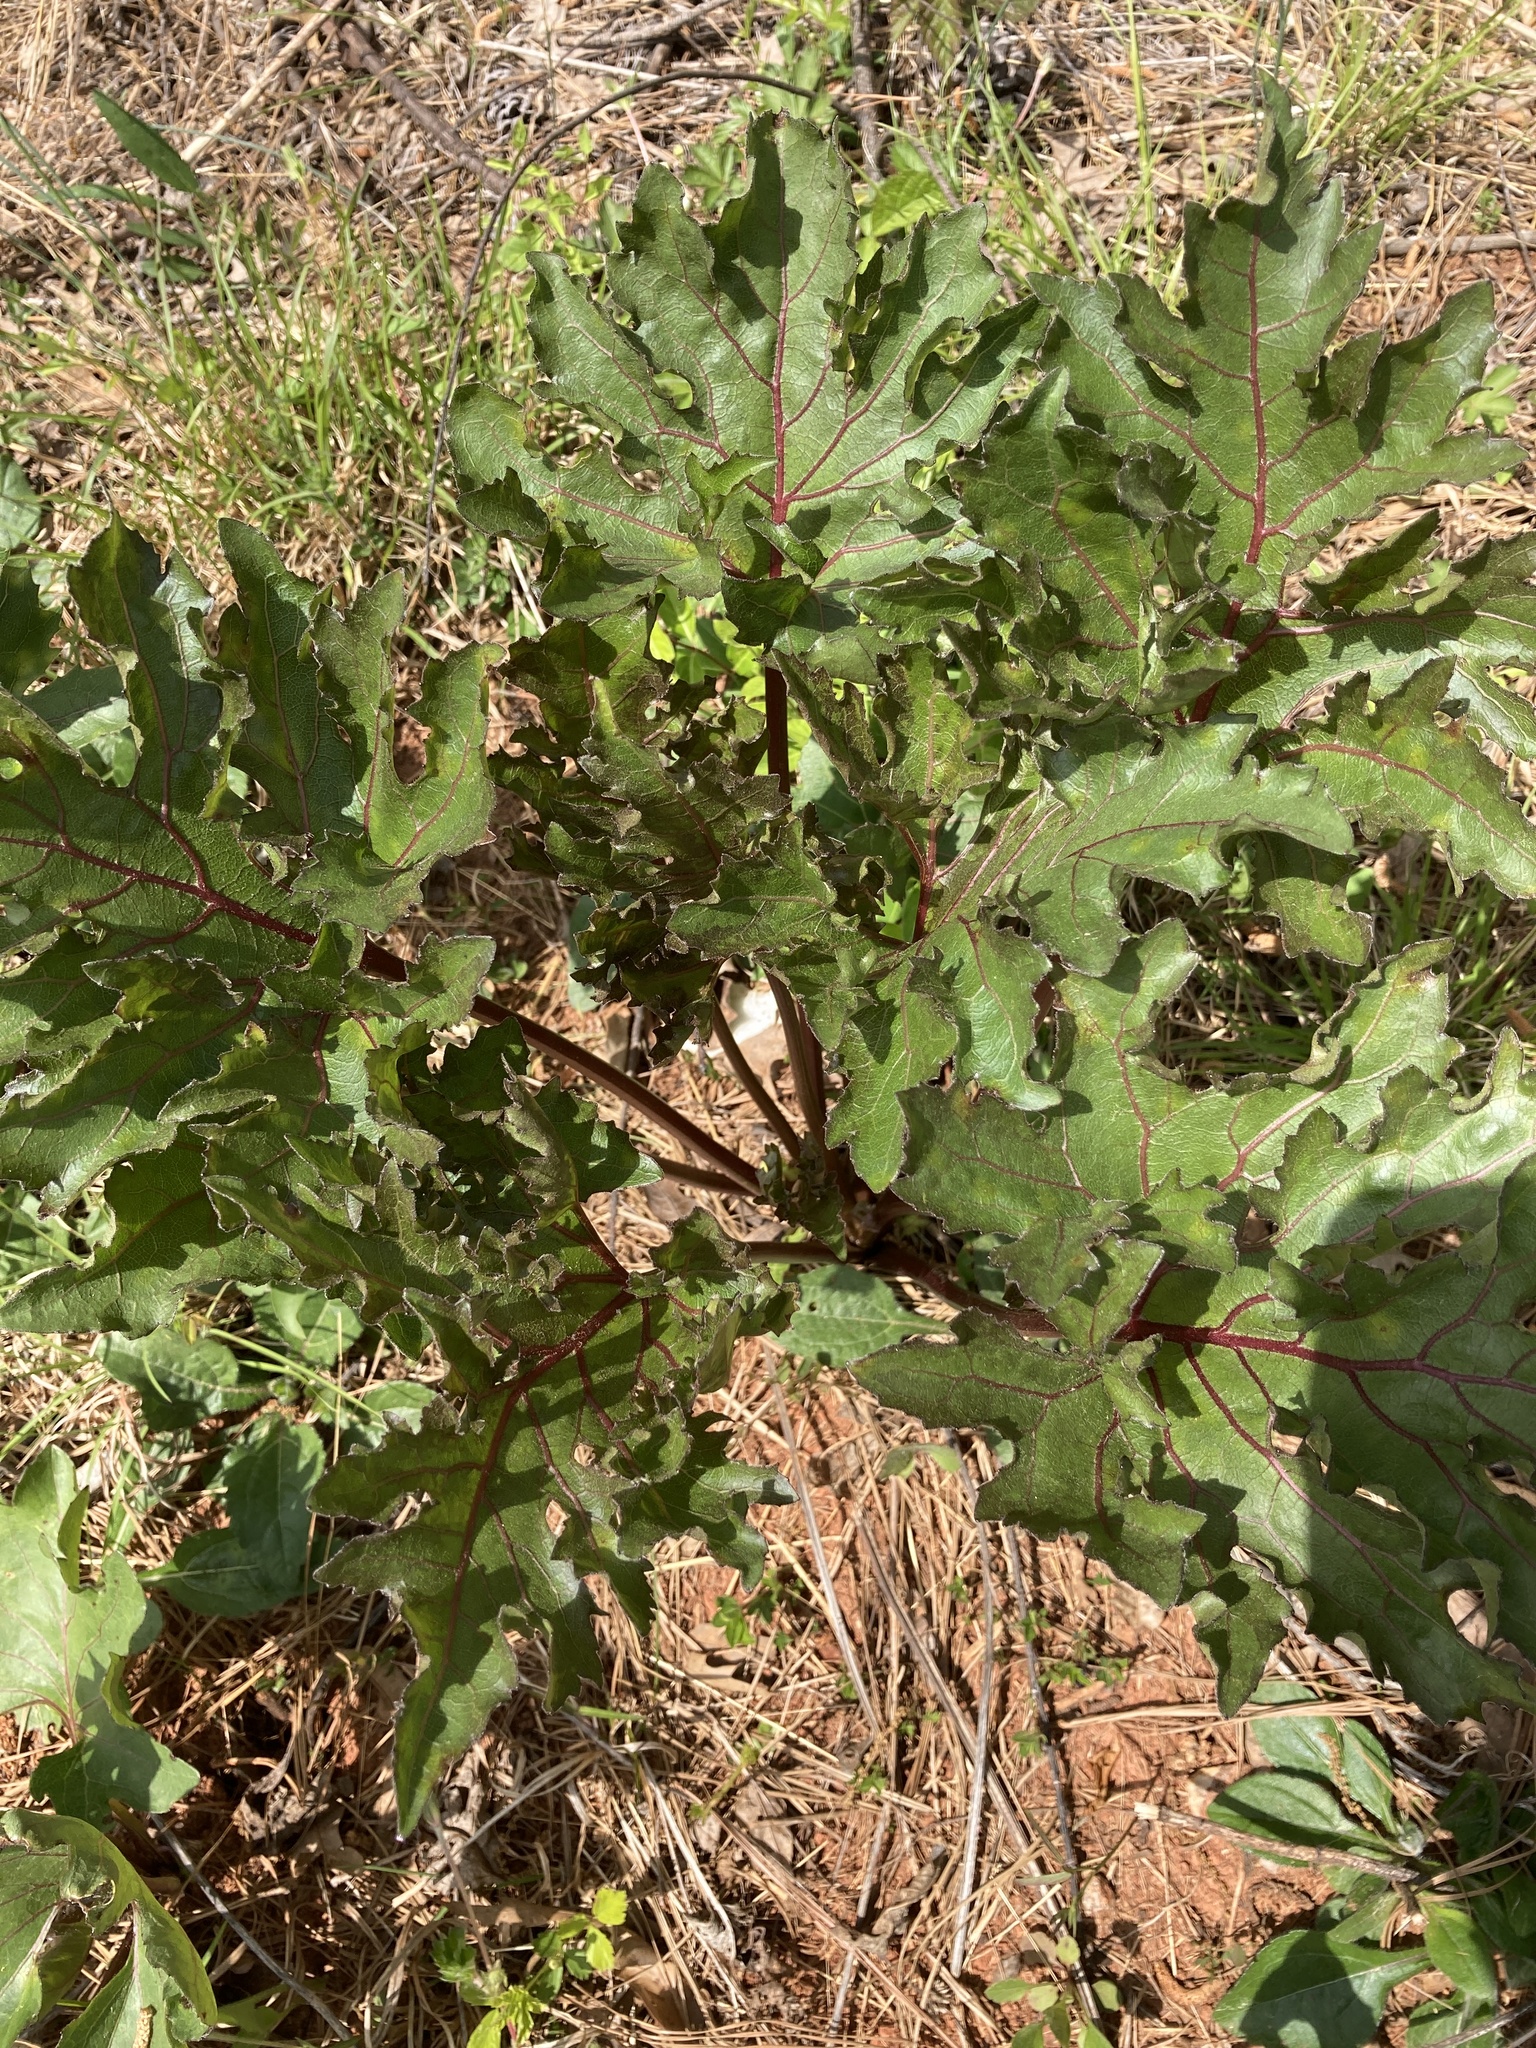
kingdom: Plantae
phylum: Tracheophyta
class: Magnoliopsida
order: Asterales
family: Asteraceae
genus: Silphium
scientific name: Silphium compositum
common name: Lesser basal-leaf rosinweed
